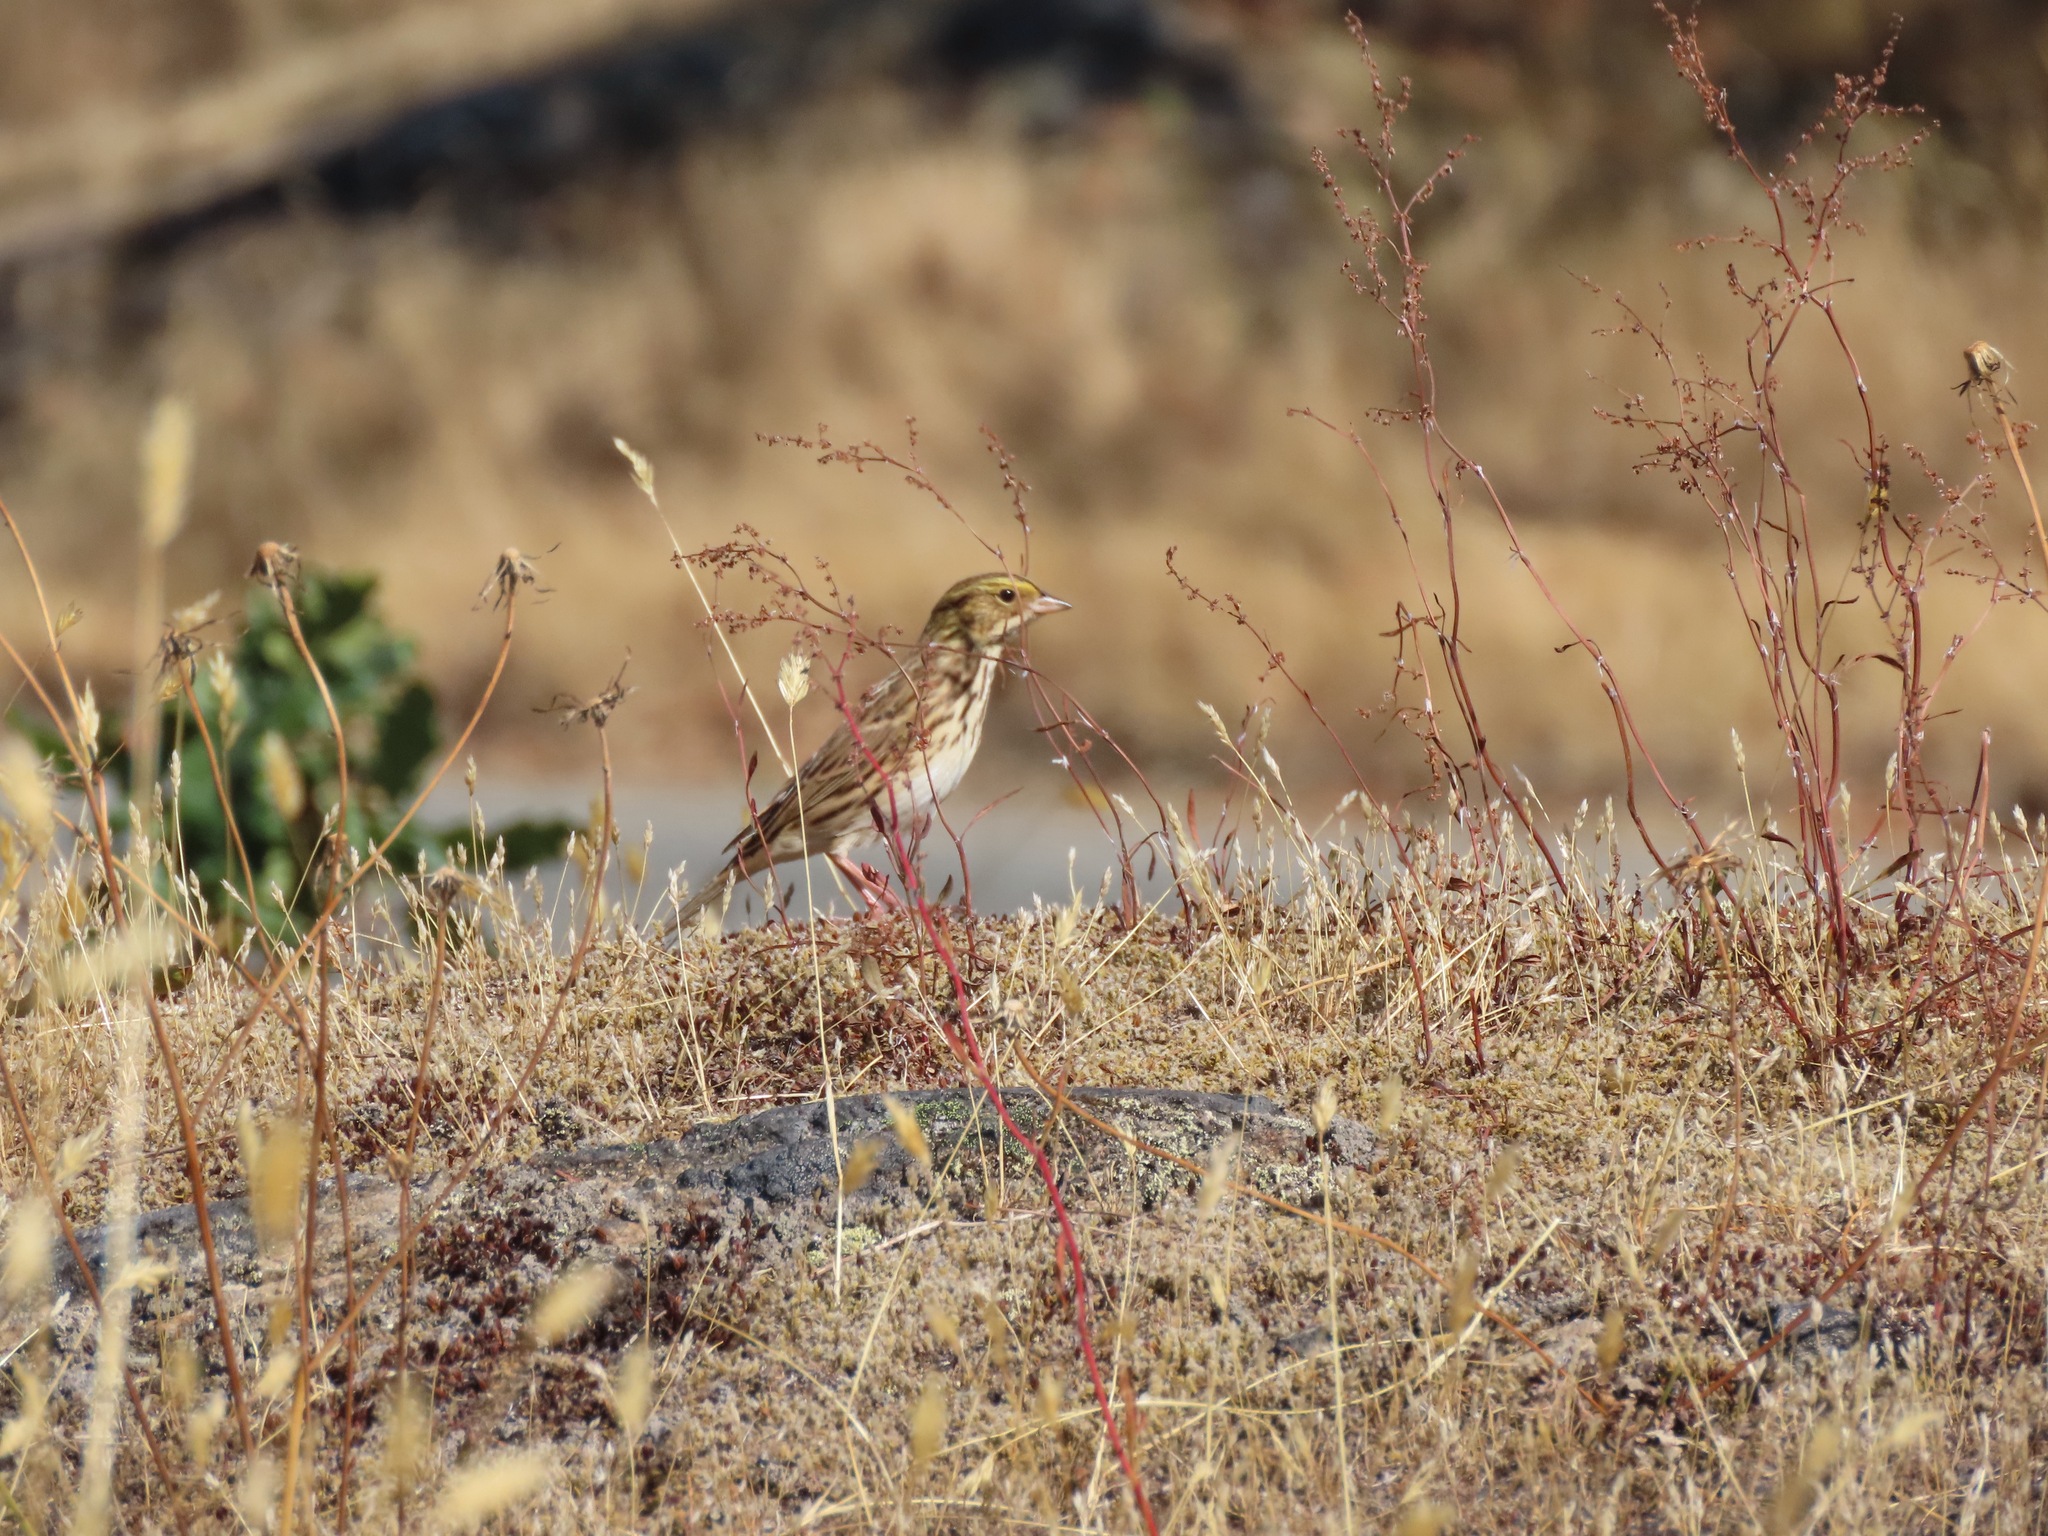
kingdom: Animalia
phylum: Chordata
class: Aves
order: Passeriformes
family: Passerellidae
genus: Passerculus
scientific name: Passerculus sandwichensis
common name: Savannah sparrow
